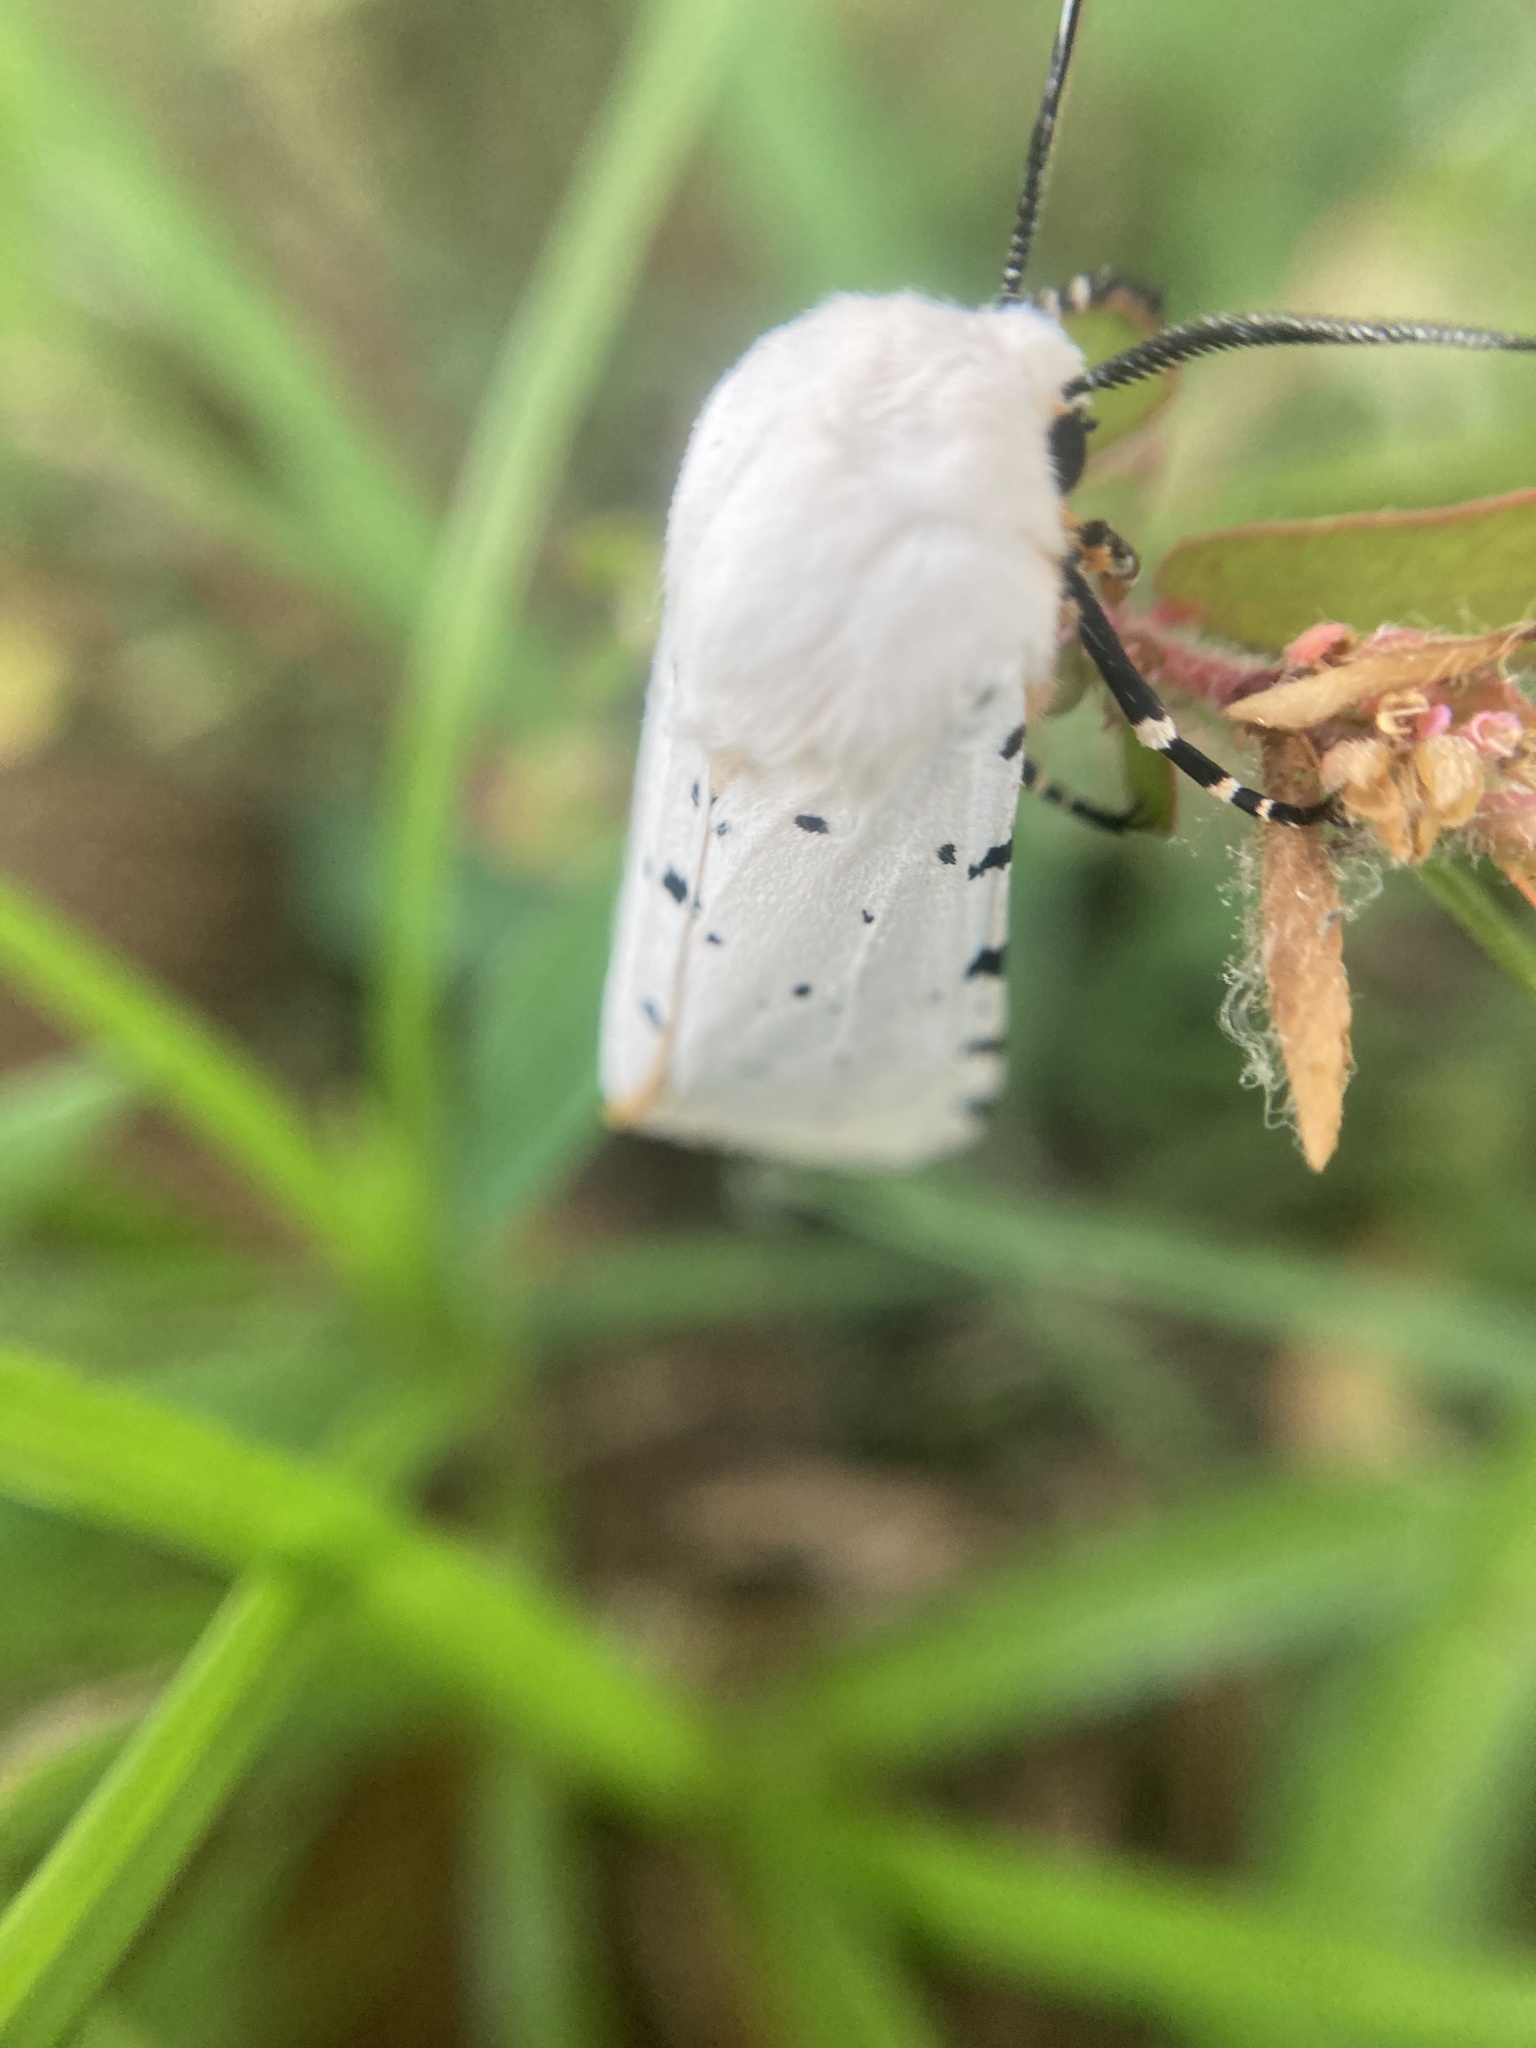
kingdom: Animalia
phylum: Arthropoda
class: Insecta
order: Lepidoptera
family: Erebidae
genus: Estigmene
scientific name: Estigmene acrea
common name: Salt marsh moth
